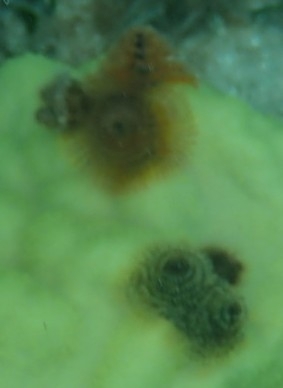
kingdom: Animalia
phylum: Annelida
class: Polychaeta
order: Sabellida
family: Serpulidae
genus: Spirobranchus
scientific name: Spirobranchus giganteus
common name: Christmas tree worm
